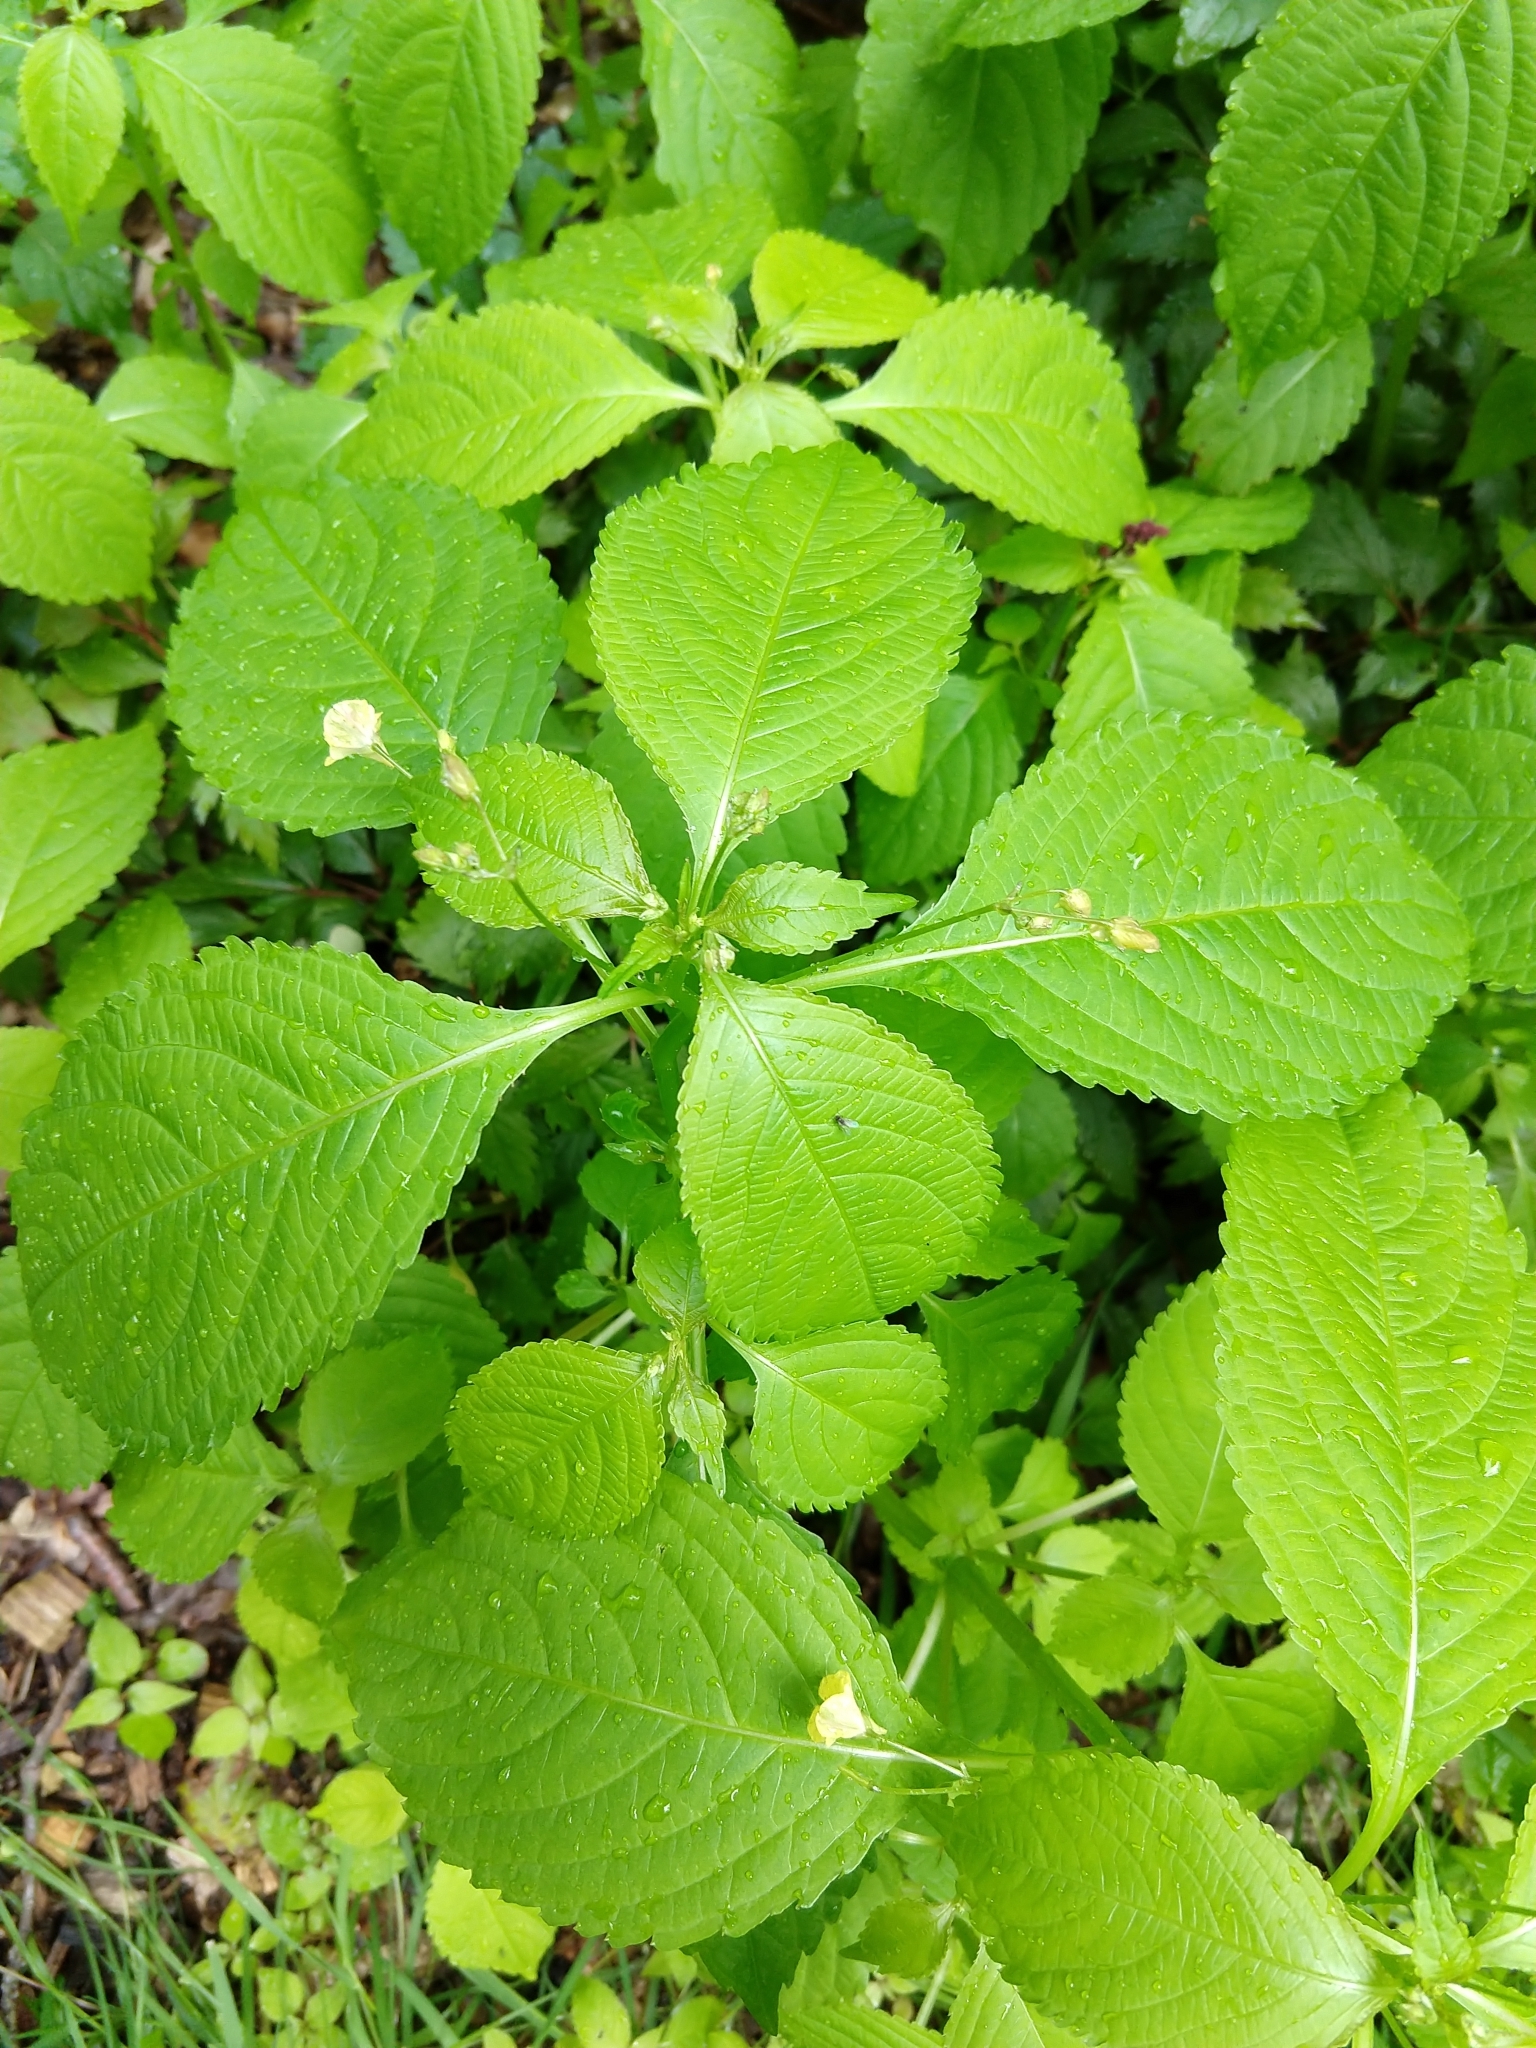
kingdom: Plantae
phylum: Tracheophyta
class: Magnoliopsida
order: Ericales
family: Balsaminaceae
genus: Impatiens
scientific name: Impatiens parviflora
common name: Small balsam
